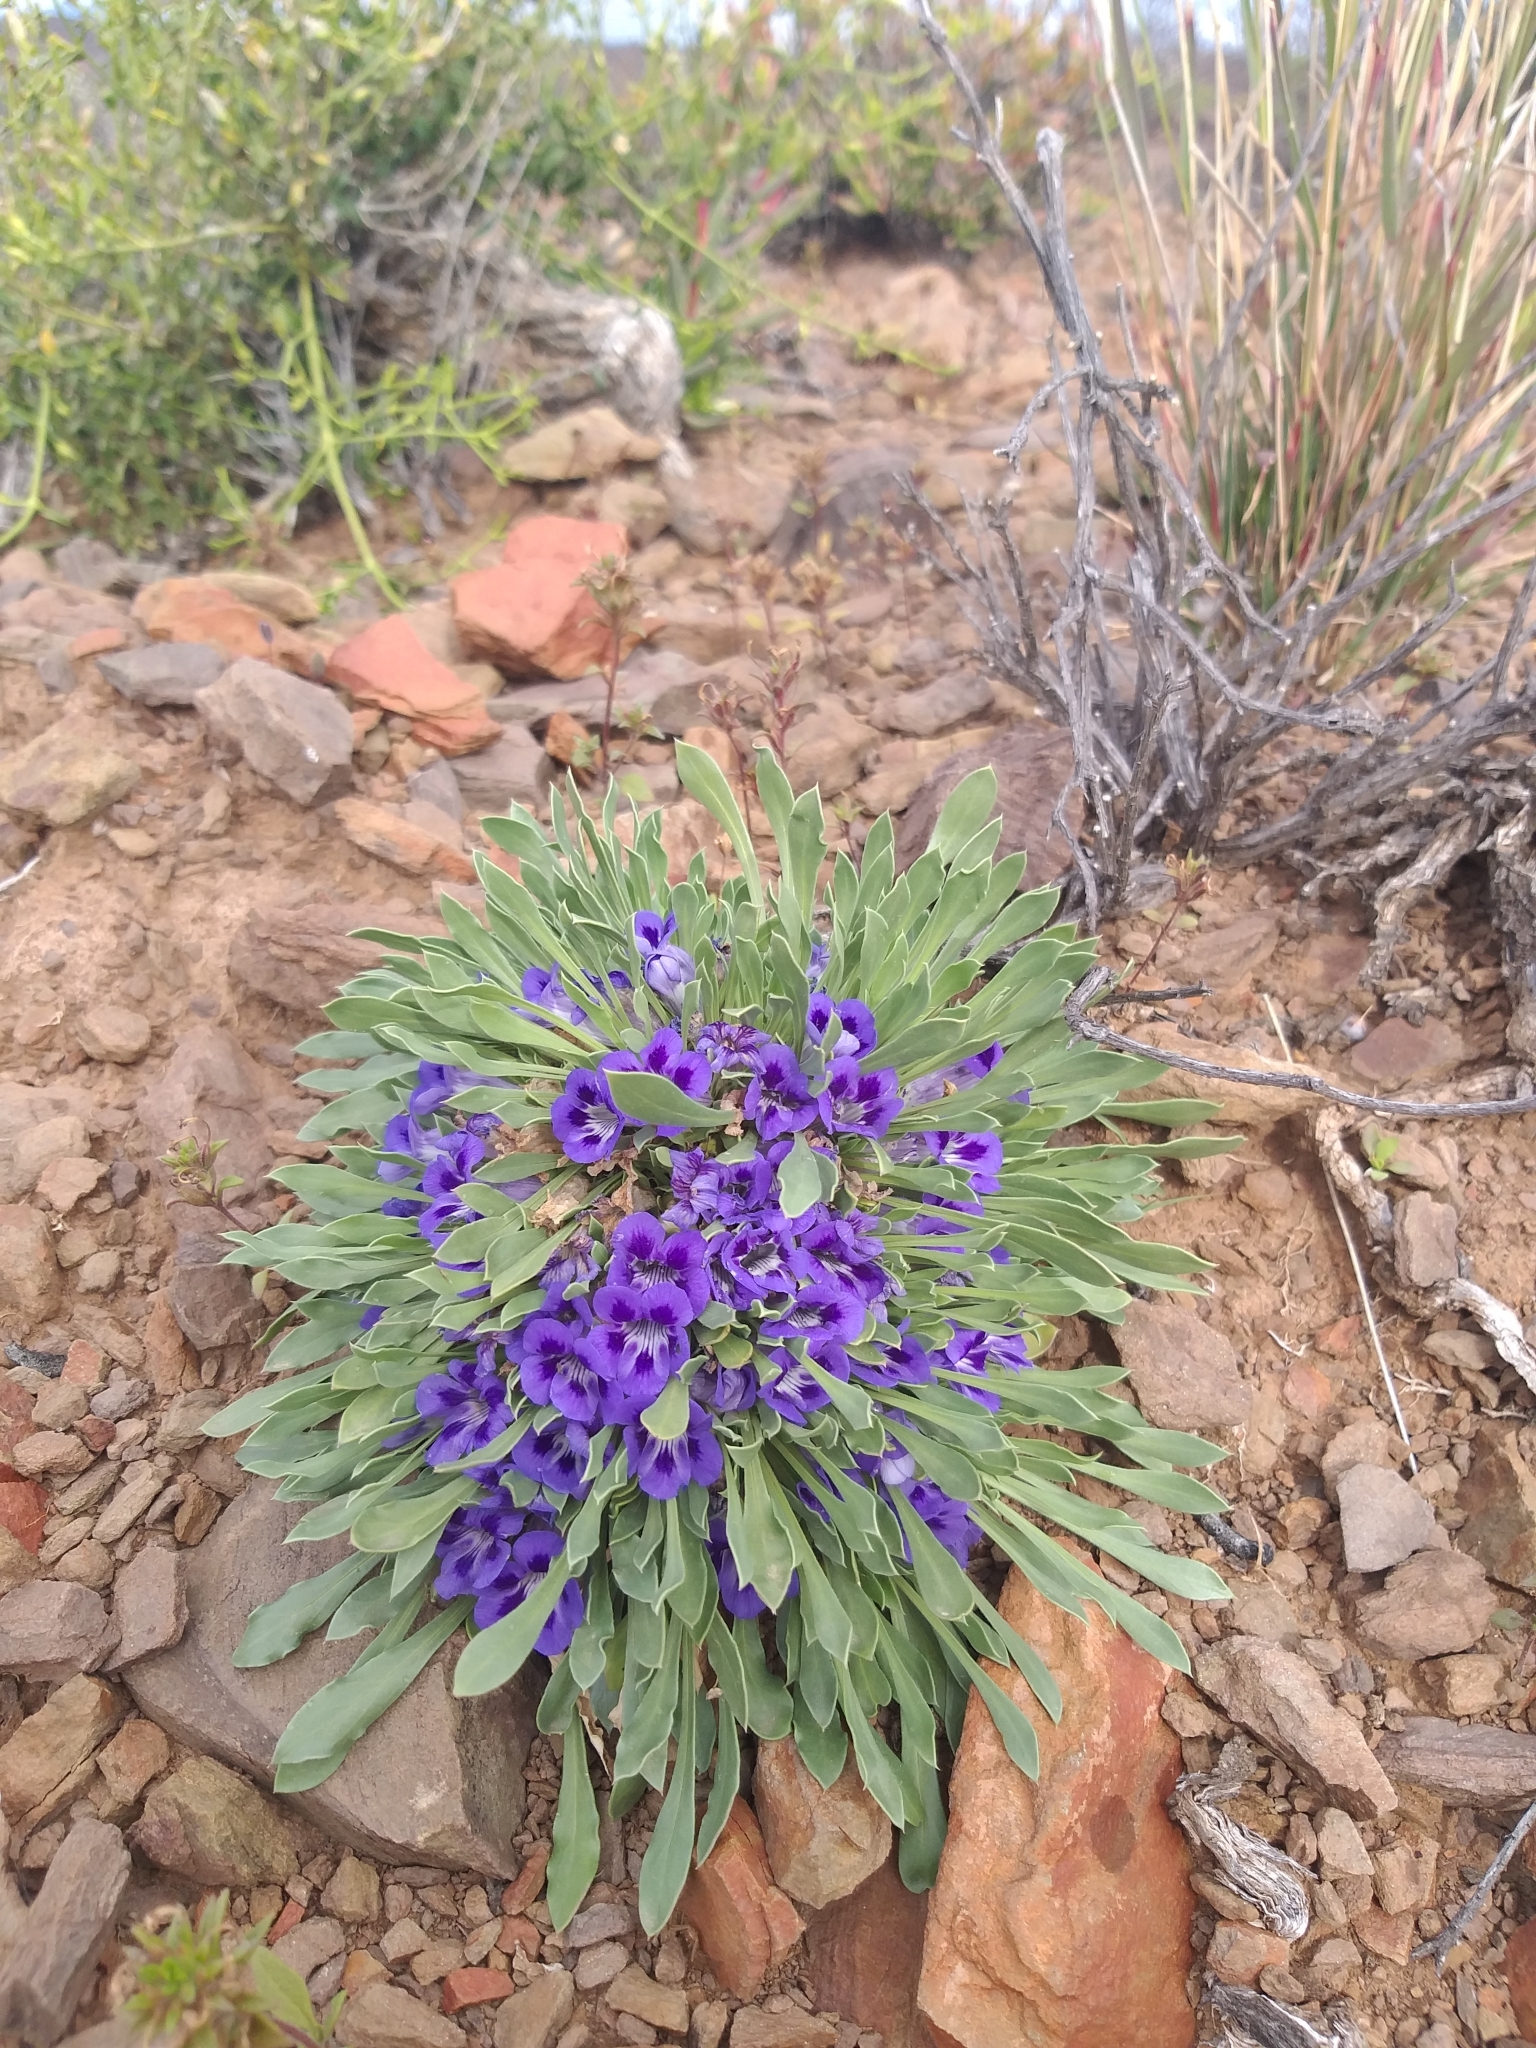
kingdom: Plantae
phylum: Tracheophyta
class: Magnoliopsida
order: Lamiales
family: Scrophulariaceae
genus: Aptosimum
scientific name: Aptosimum indivisum
